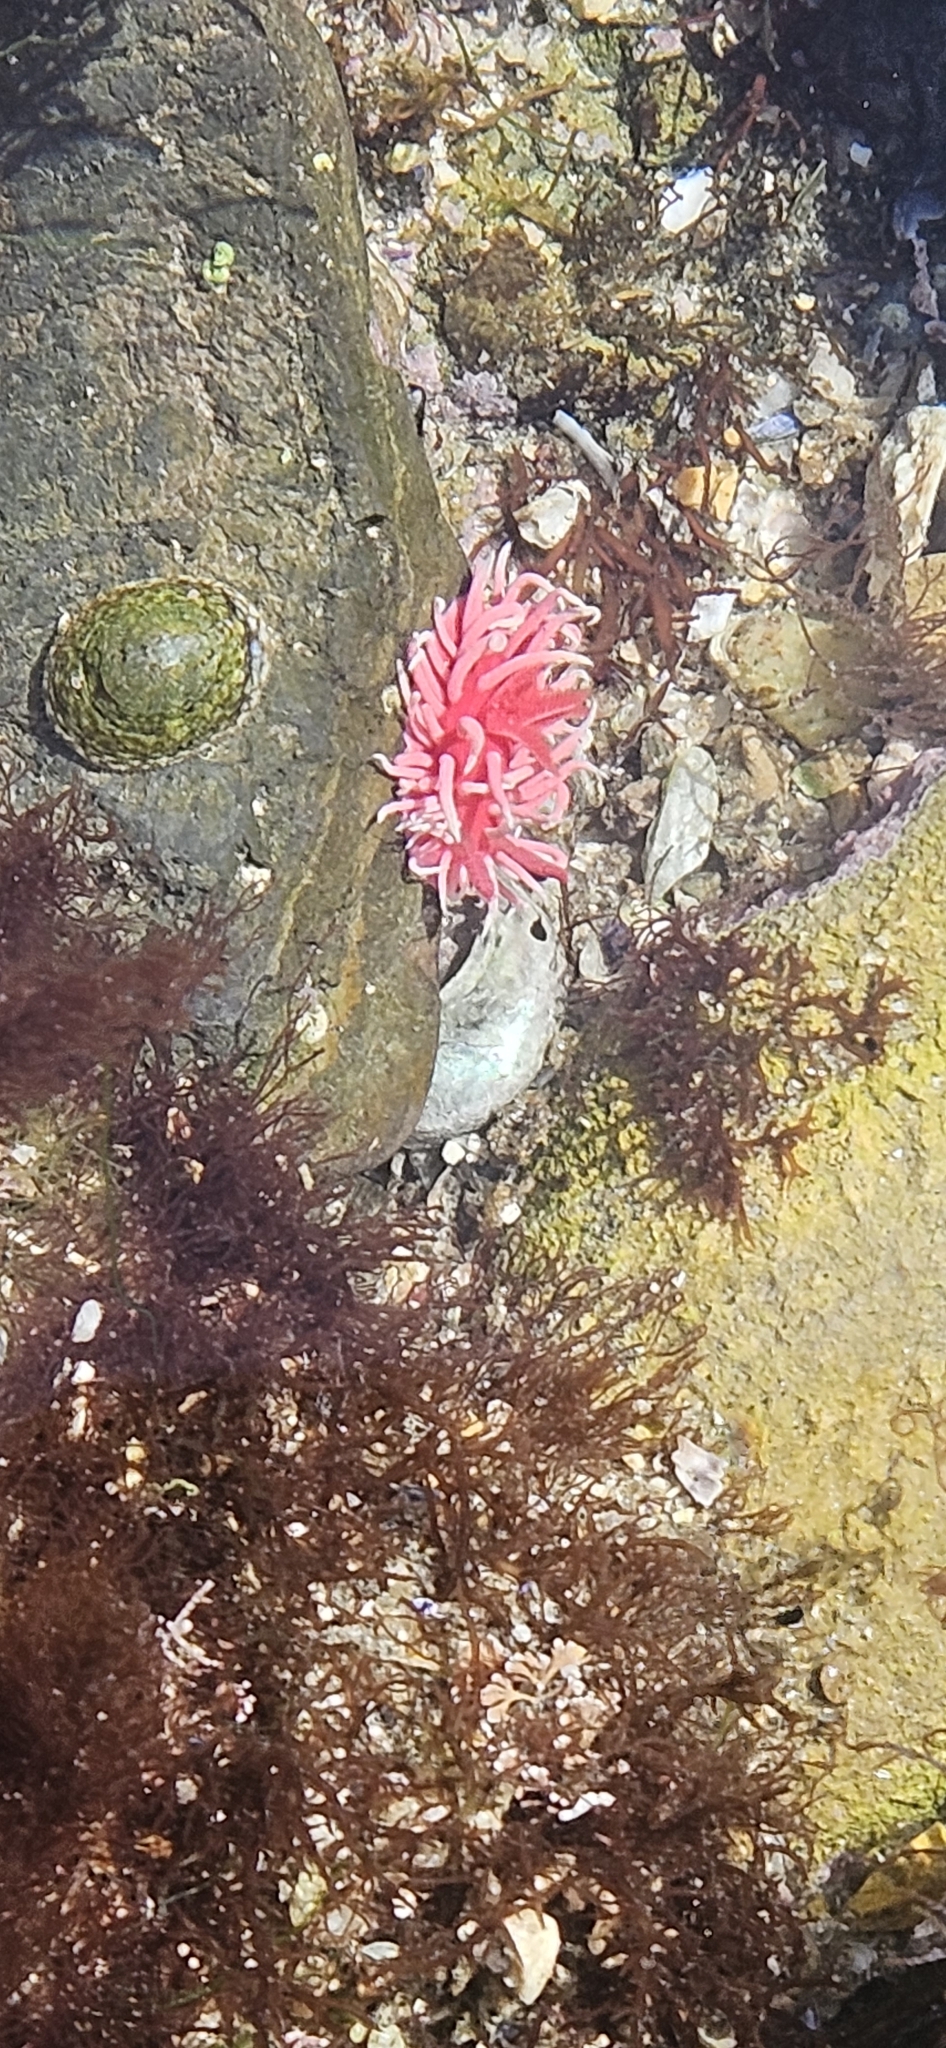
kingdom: Animalia
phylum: Mollusca
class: Gastropoda
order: Nudibranchia
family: Goniodorididae
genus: Okenia
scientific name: Okenia
